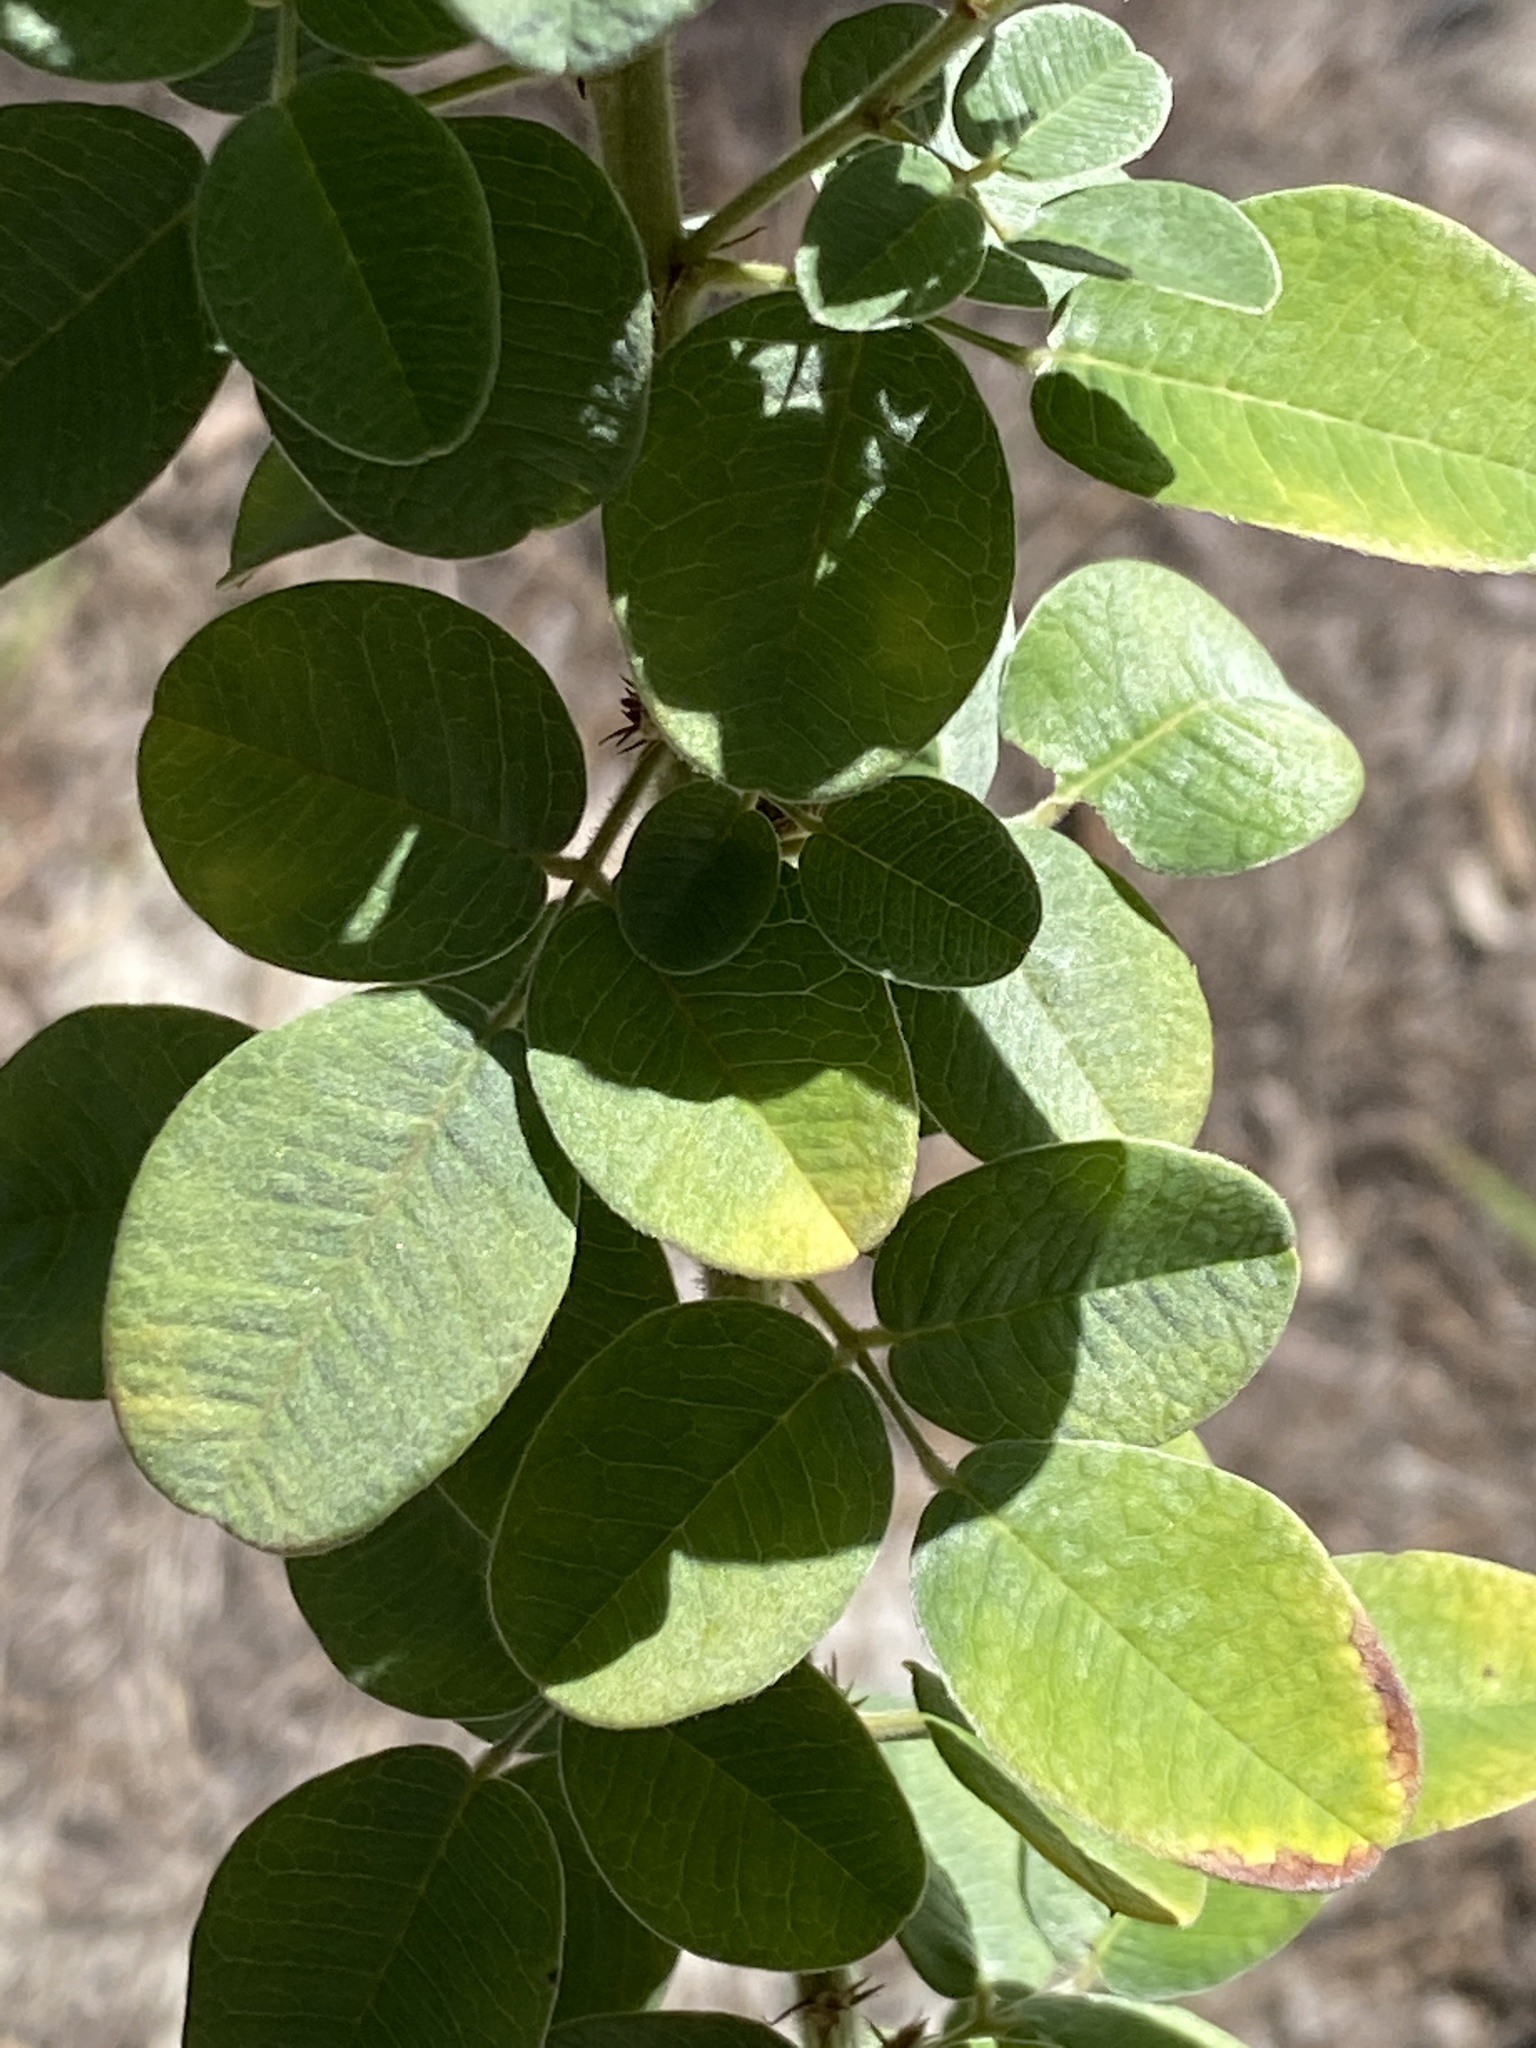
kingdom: Plantae
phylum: Tracheophyta
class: Magnoliopsida
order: Fabales
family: Fabaceae
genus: Lespedeza
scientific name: Lespedeza hirta
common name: Hairy lespedeza
